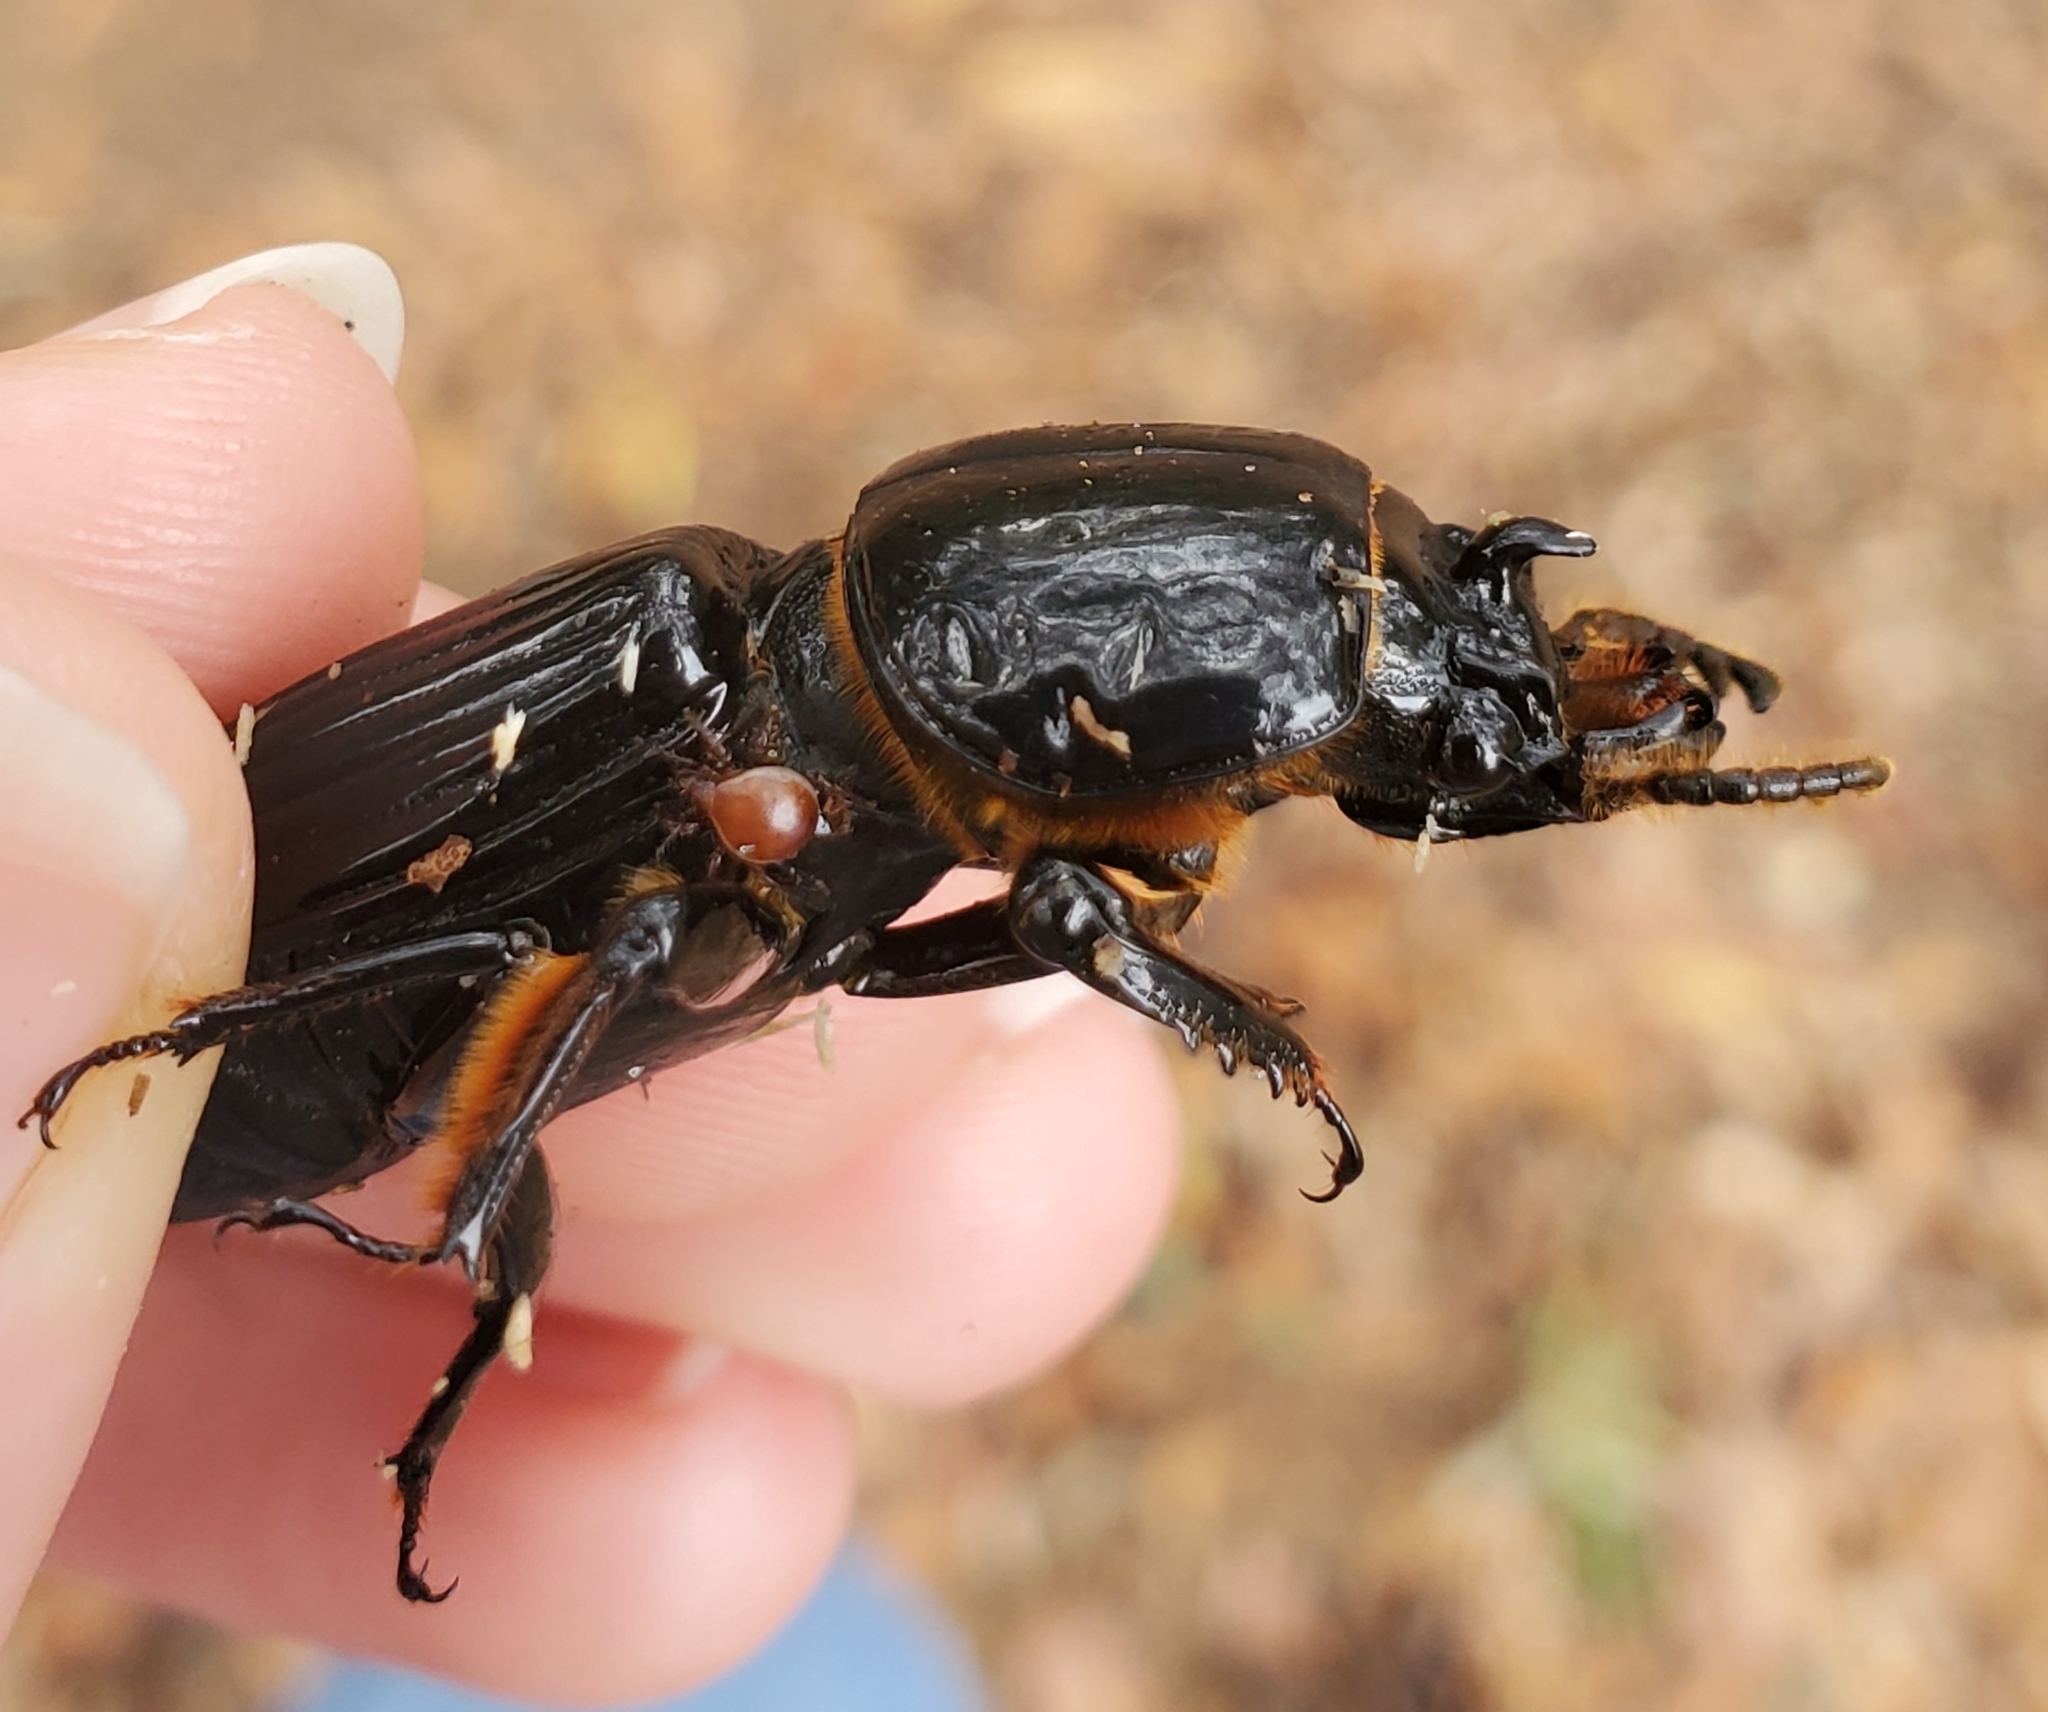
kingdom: Animalia
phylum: Arthropoda
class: Insecta
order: Coleoptera
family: Passalidae
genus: Odontotaenius
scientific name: Odontotaenius disjunctus
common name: Patent leather beetle
